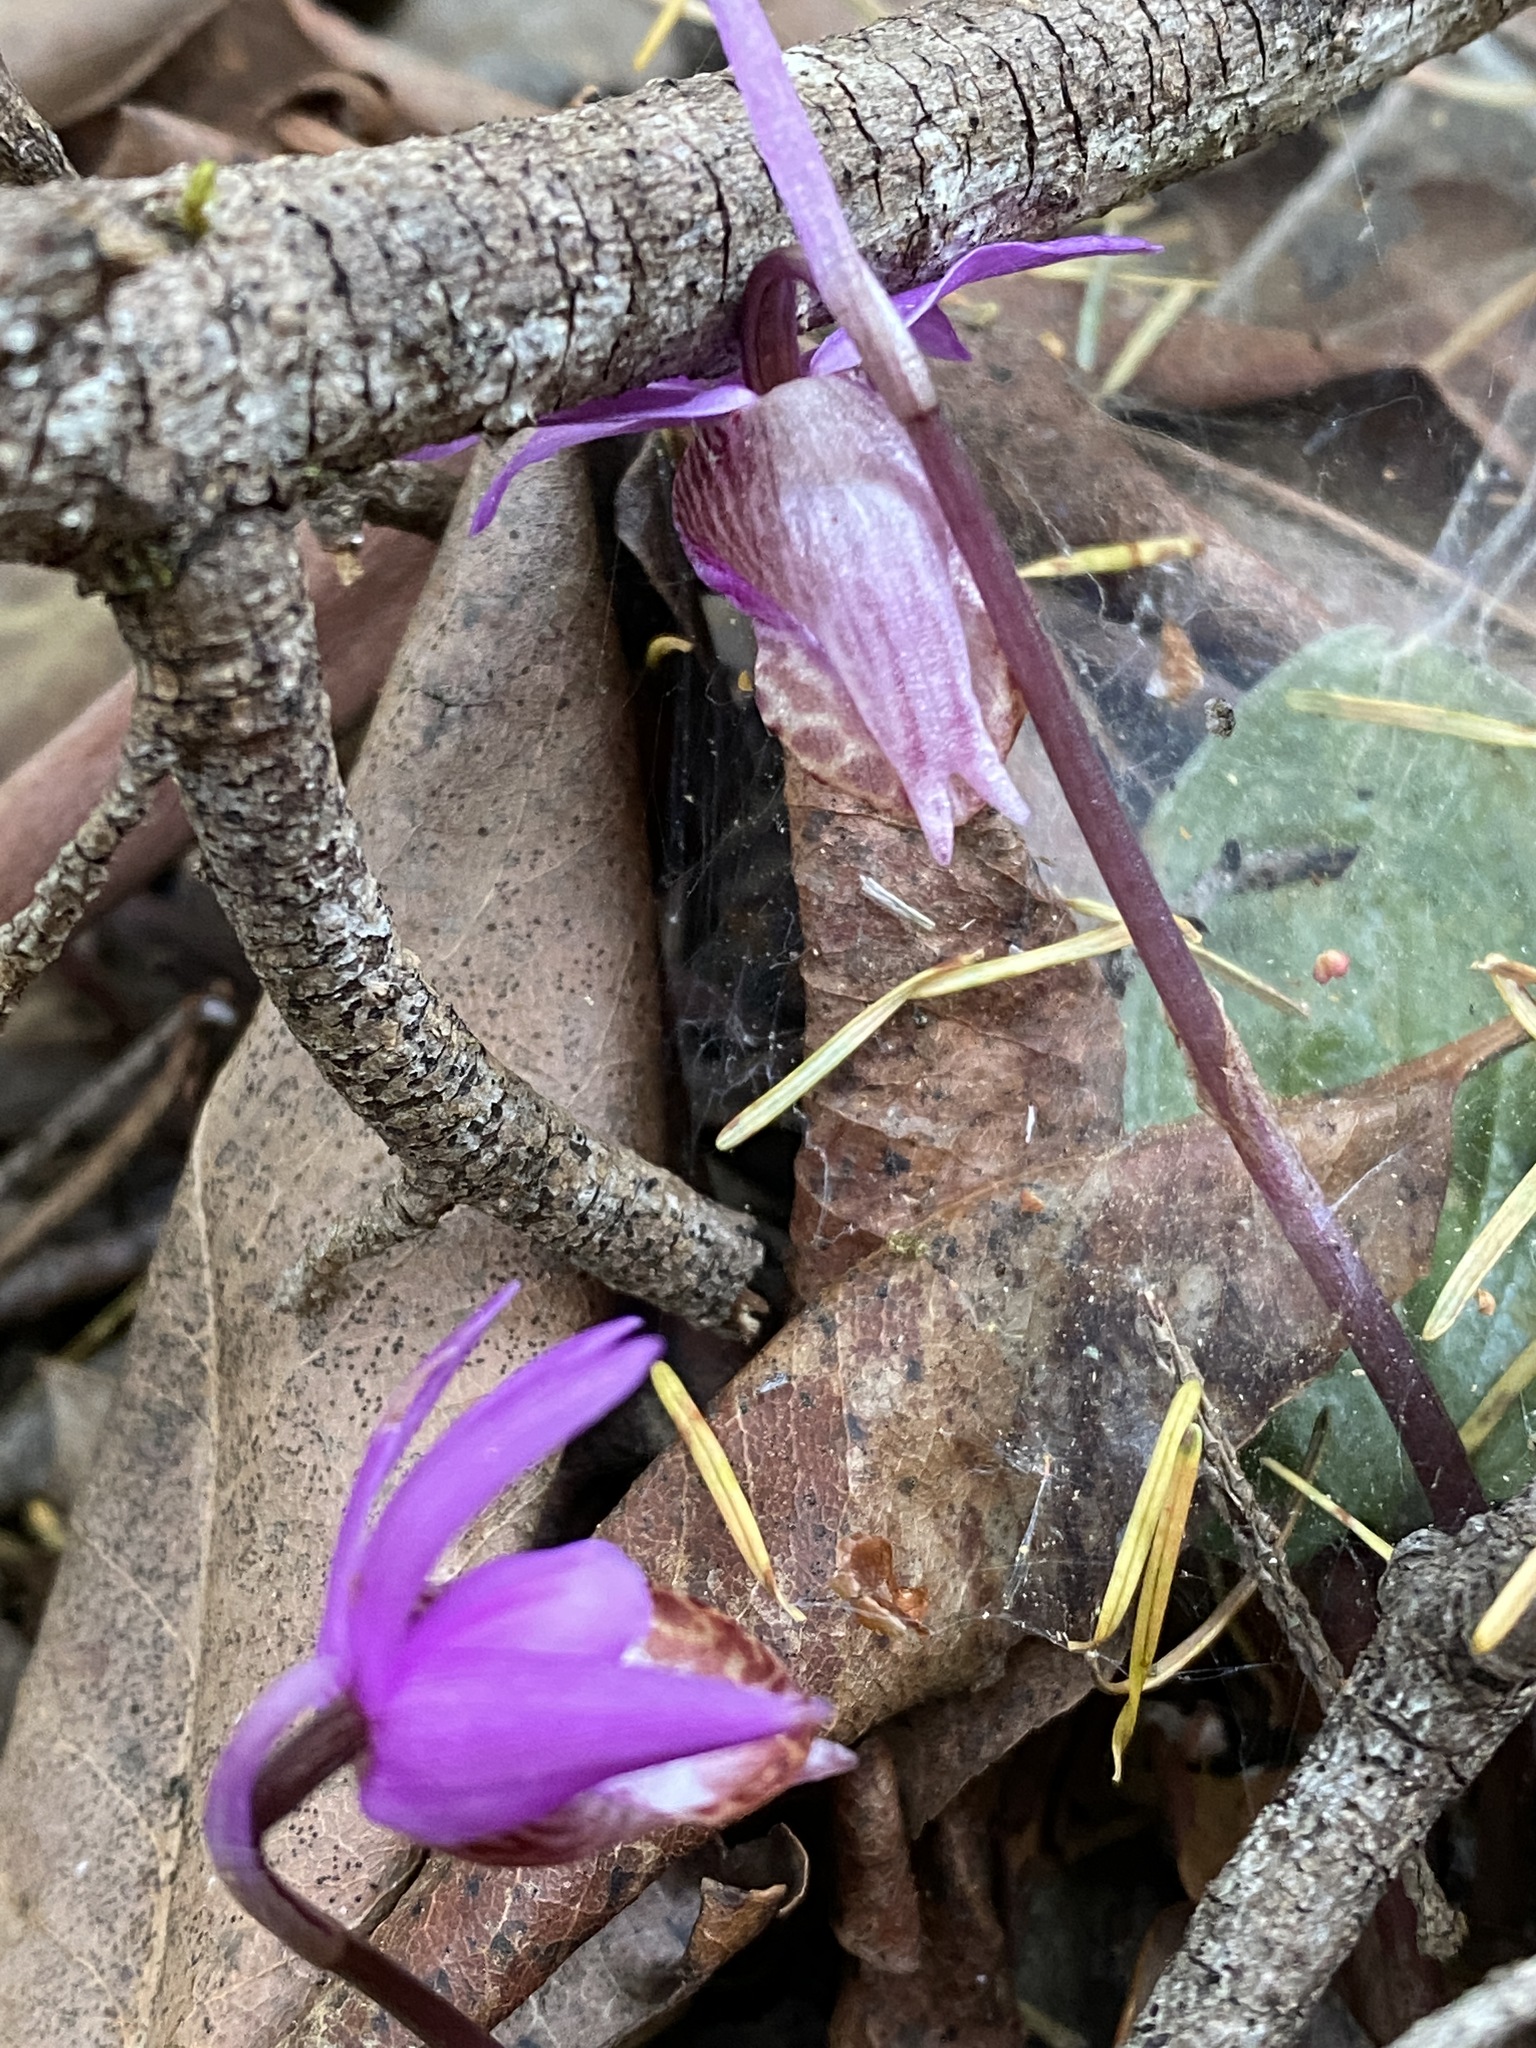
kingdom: Plantae
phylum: Tracheophyta
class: Liliopsida
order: Asparagales
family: Orchidaceae
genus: Calypso
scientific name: Calypso bulbosa
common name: Calypso
